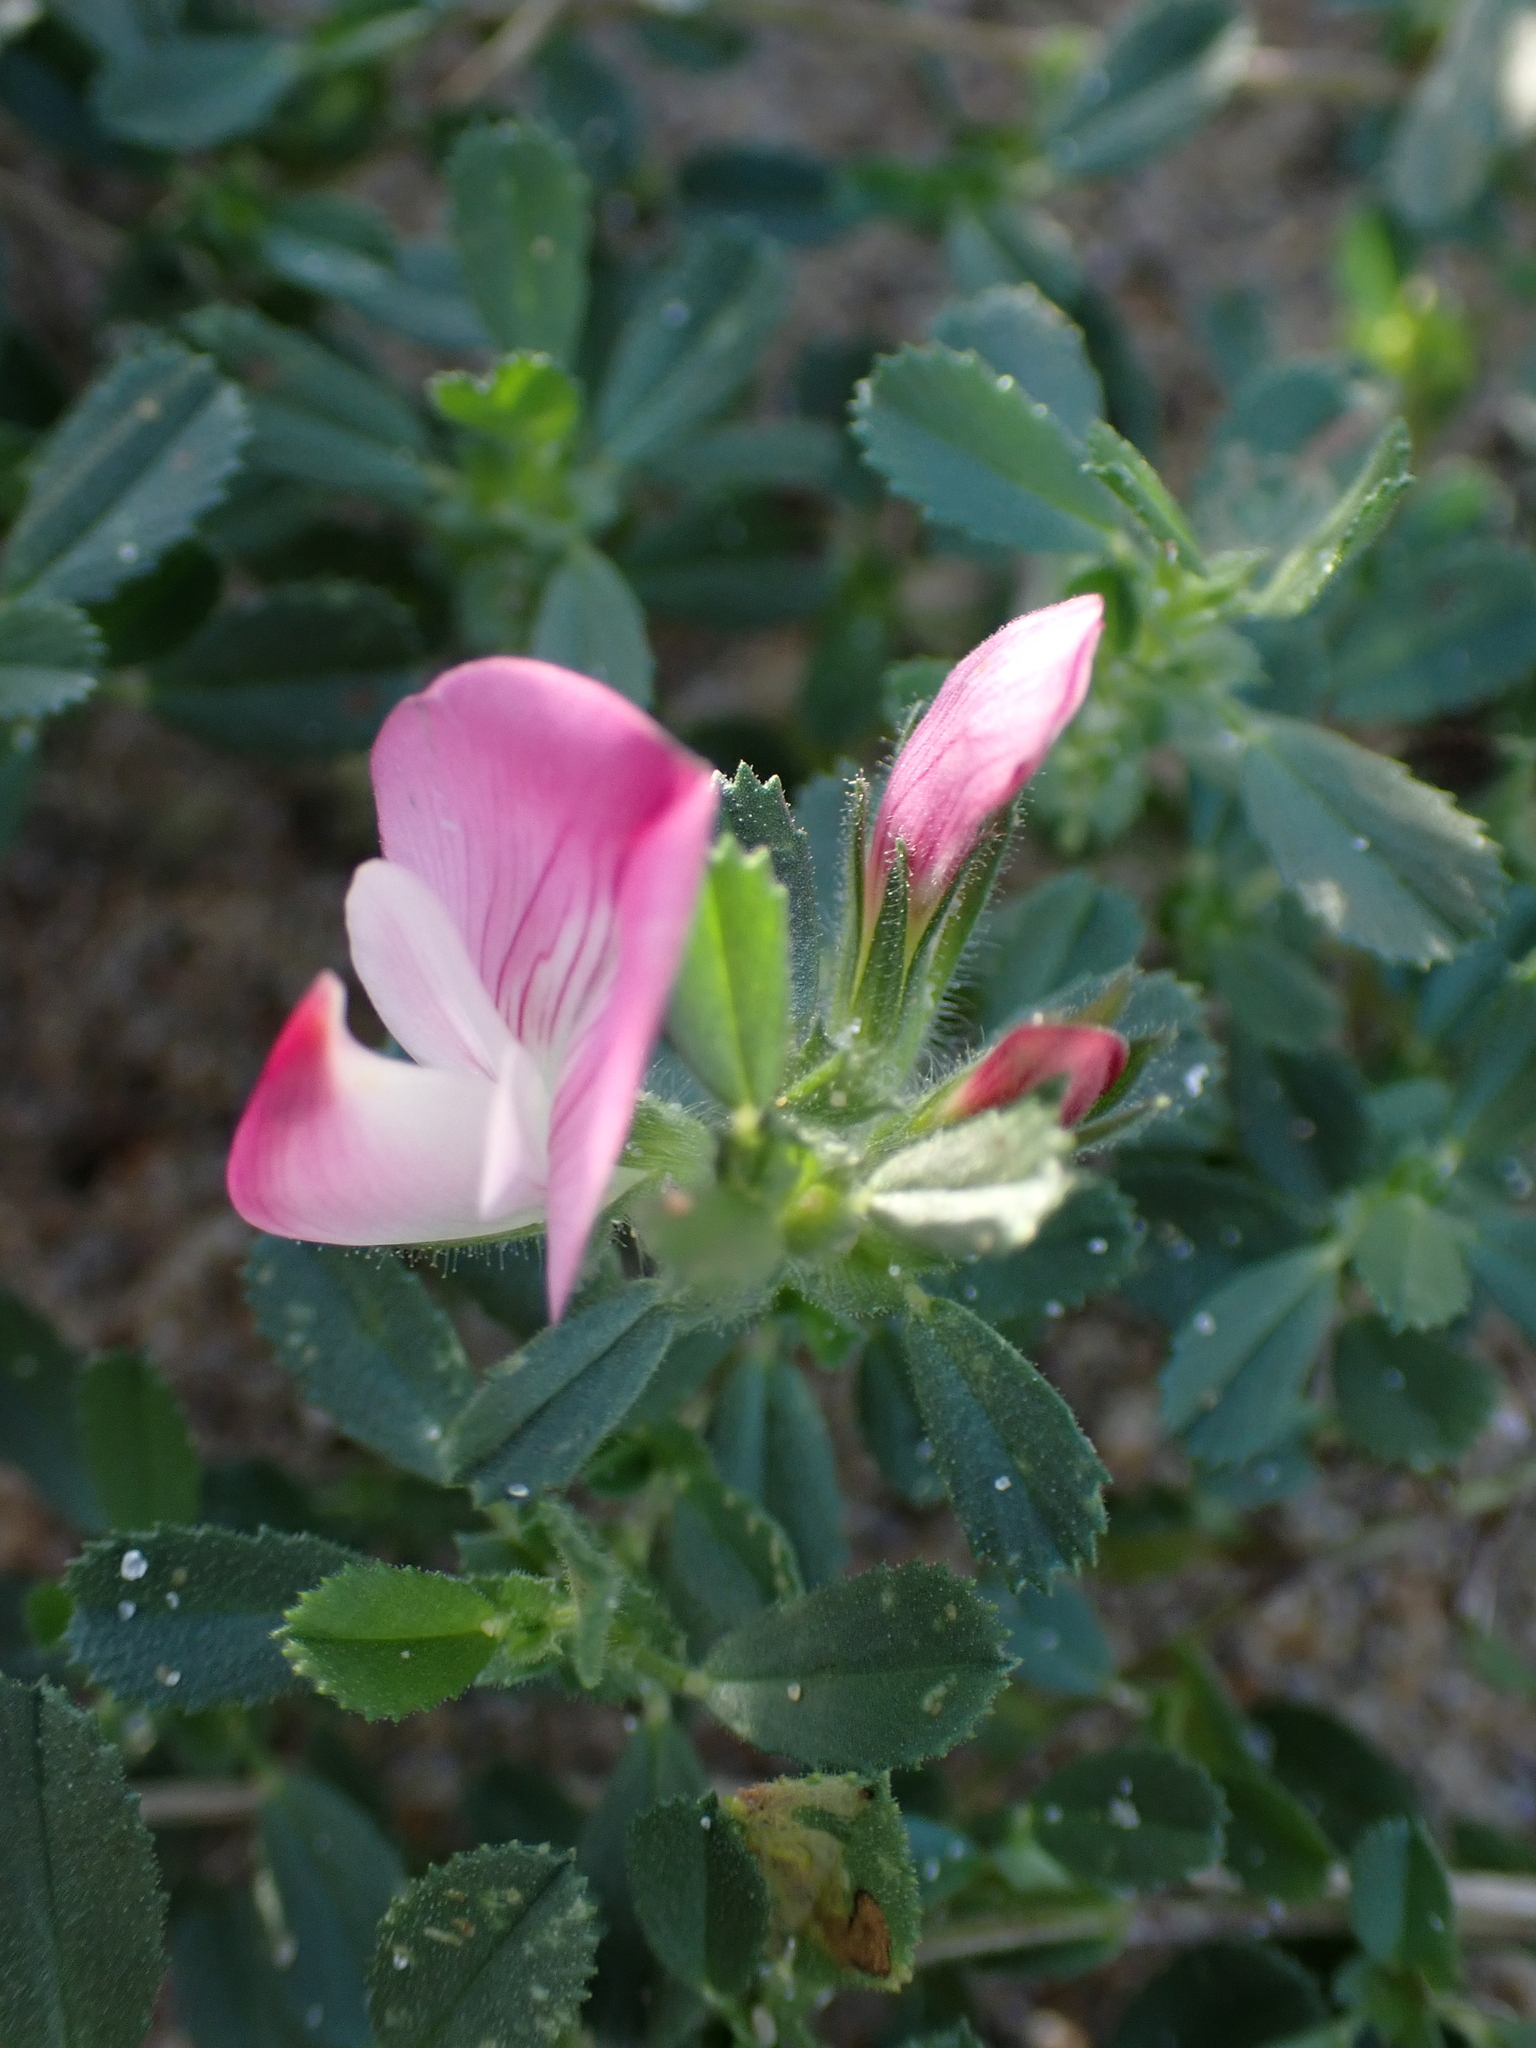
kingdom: Plantae
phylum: Tracheophyta
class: Magnoliopsida
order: Fabales
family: Fabaceae
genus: Ononis
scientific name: Ononis spinosa
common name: Spiny restharrow
